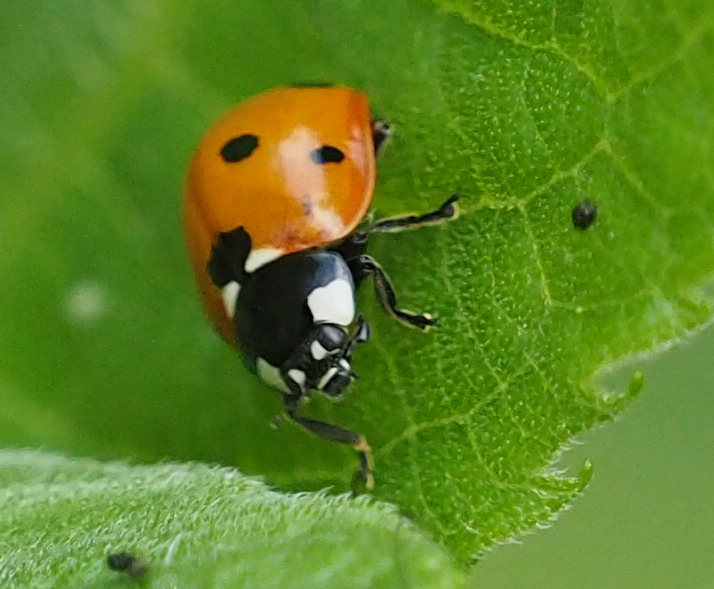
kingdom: Animalia
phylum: Arthropoda
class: Insecta
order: Coleoptera
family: Coccinellidae
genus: Coccinella
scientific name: Coccinella septempunctata
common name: Sevenspotted lady beetle
